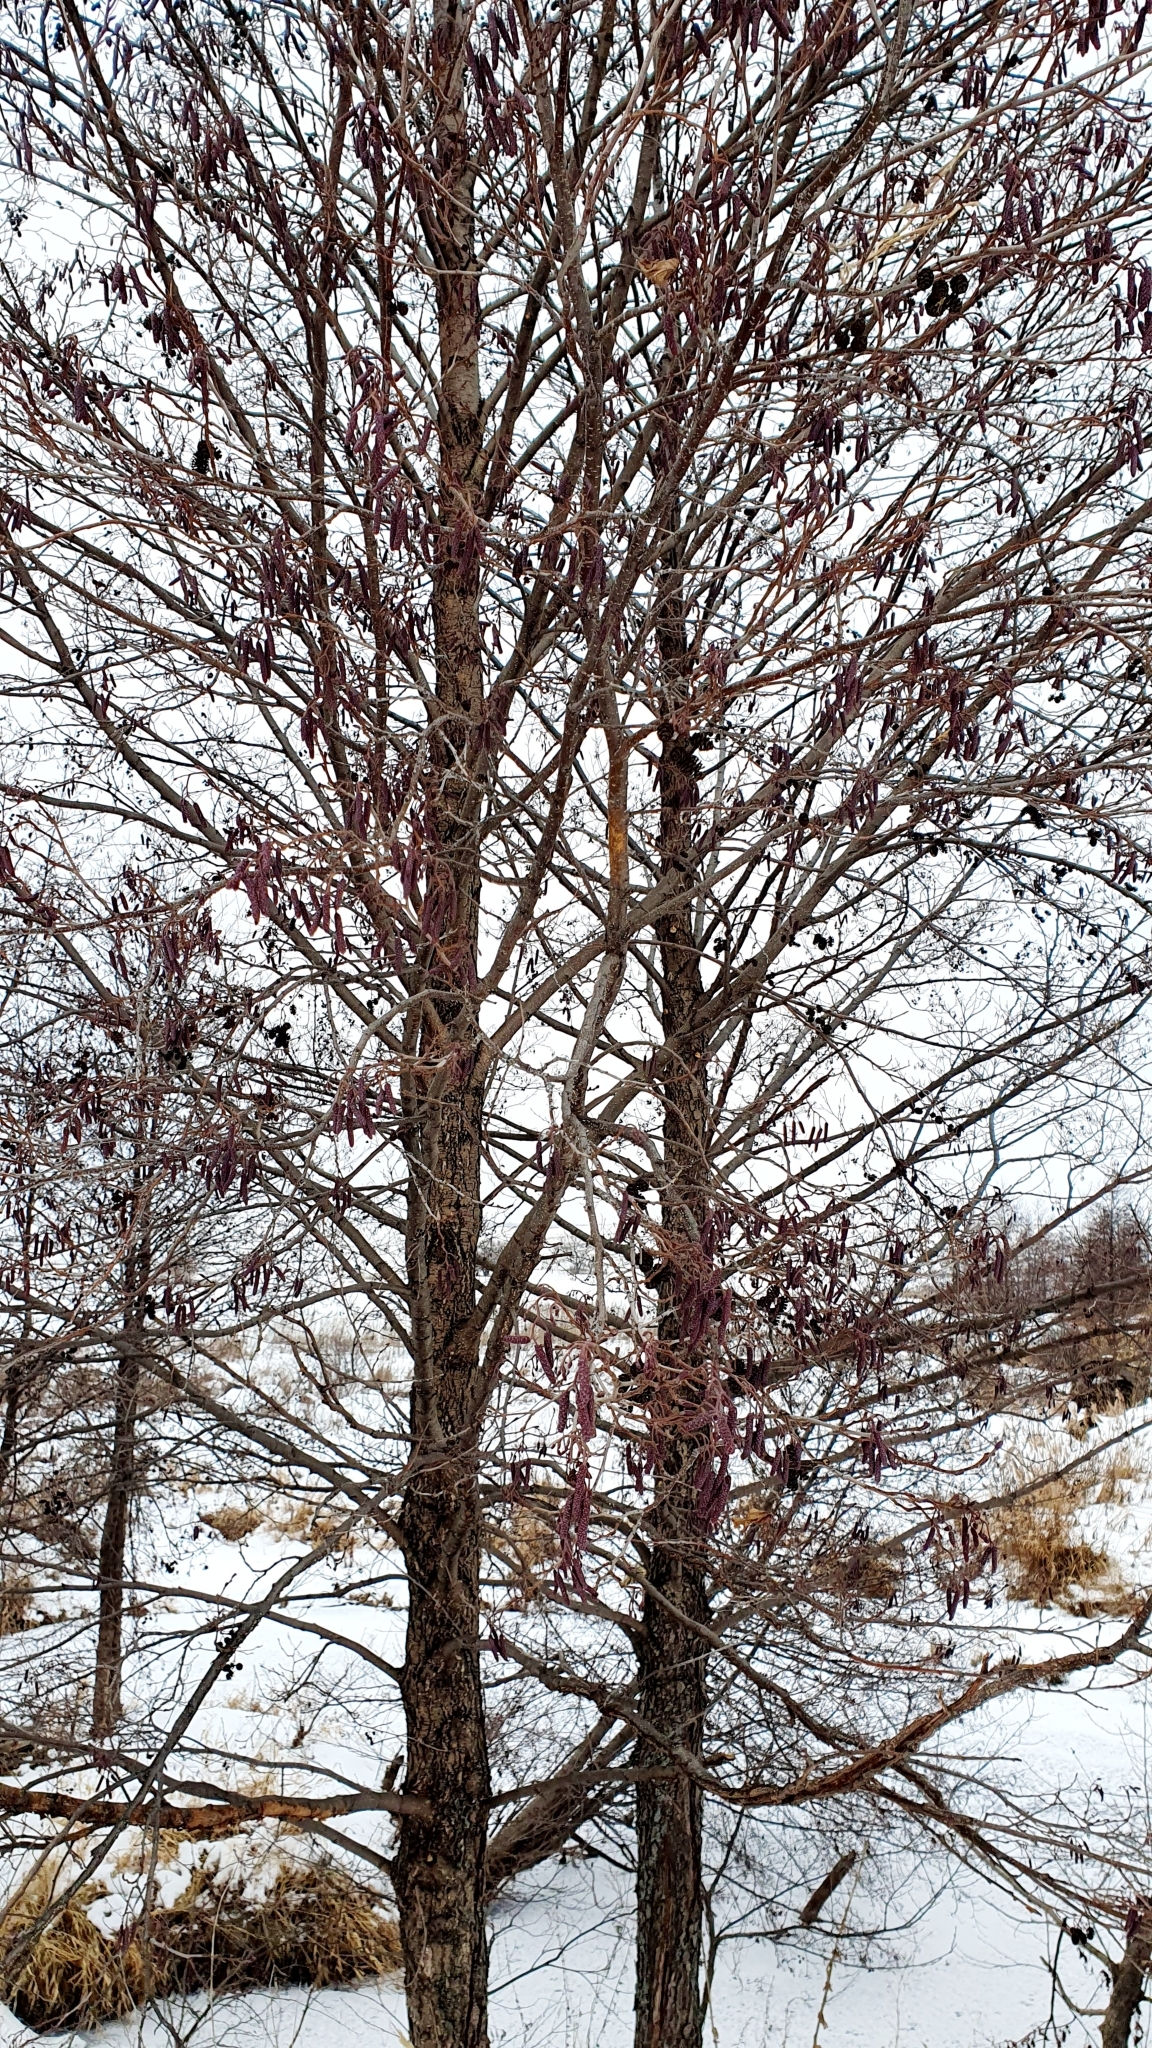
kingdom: Plantae
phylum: Tracheophyta
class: Magnoliopsida
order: Fagales
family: Betulaceae
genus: Alnus
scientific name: Alnus glutinosa
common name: Black alder
